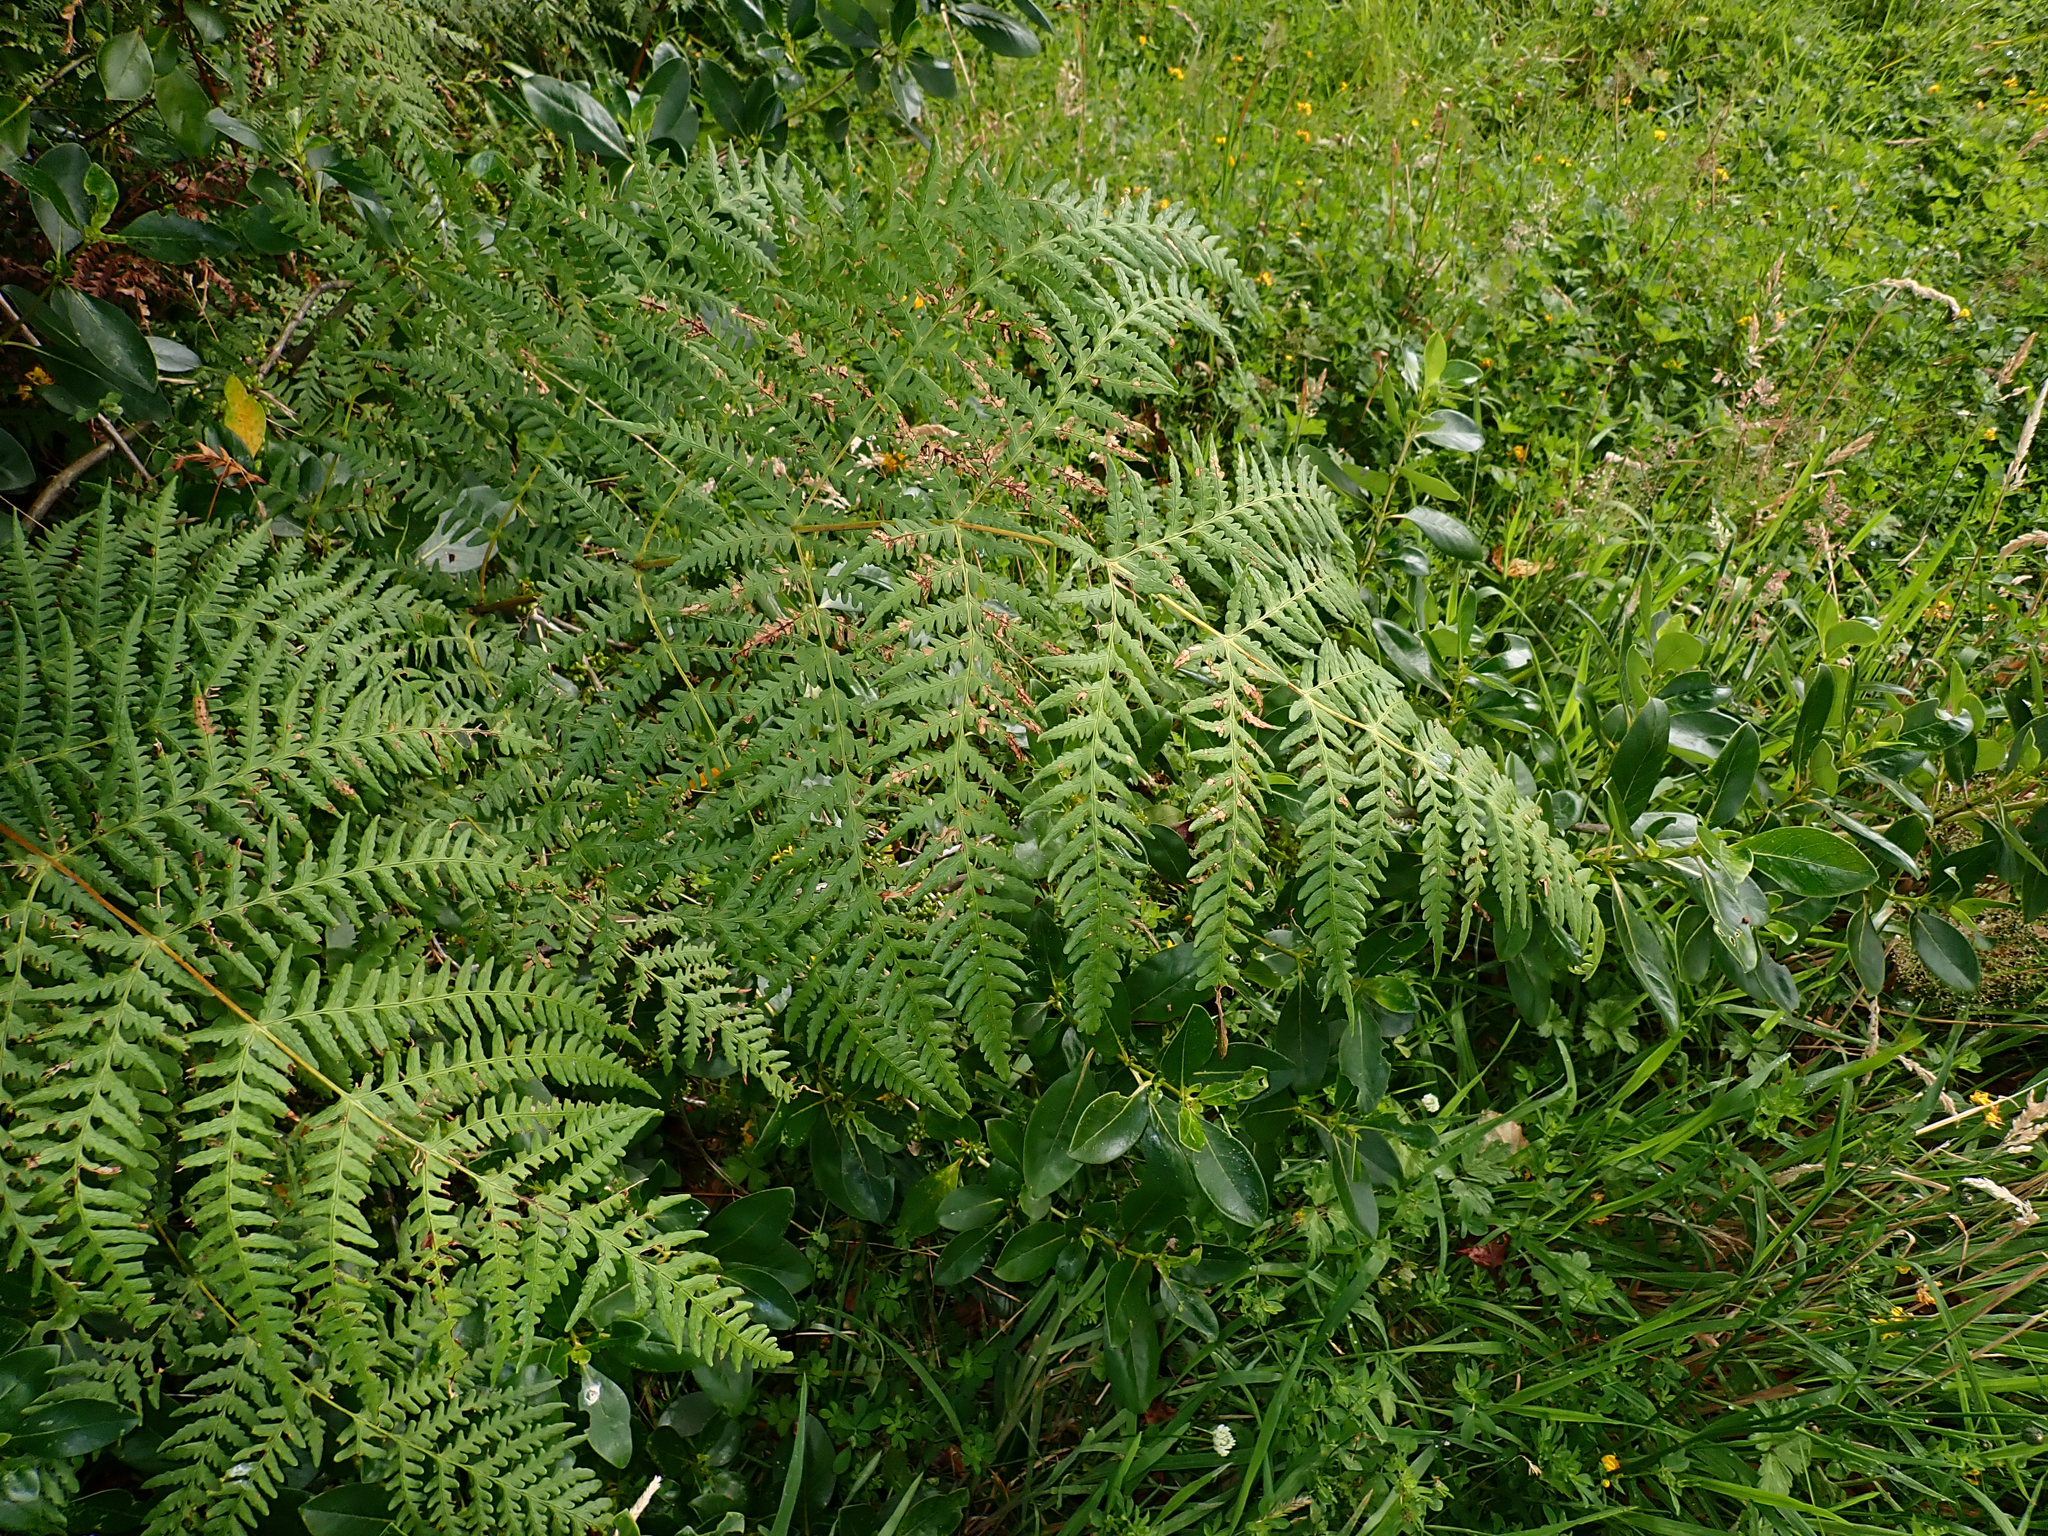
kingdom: Plantae
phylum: Tracheophyta
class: Polypodiopsida
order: Polypodiales
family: Dennstaedtiaceae
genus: Histiopteris
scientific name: Histiopteris incisa
